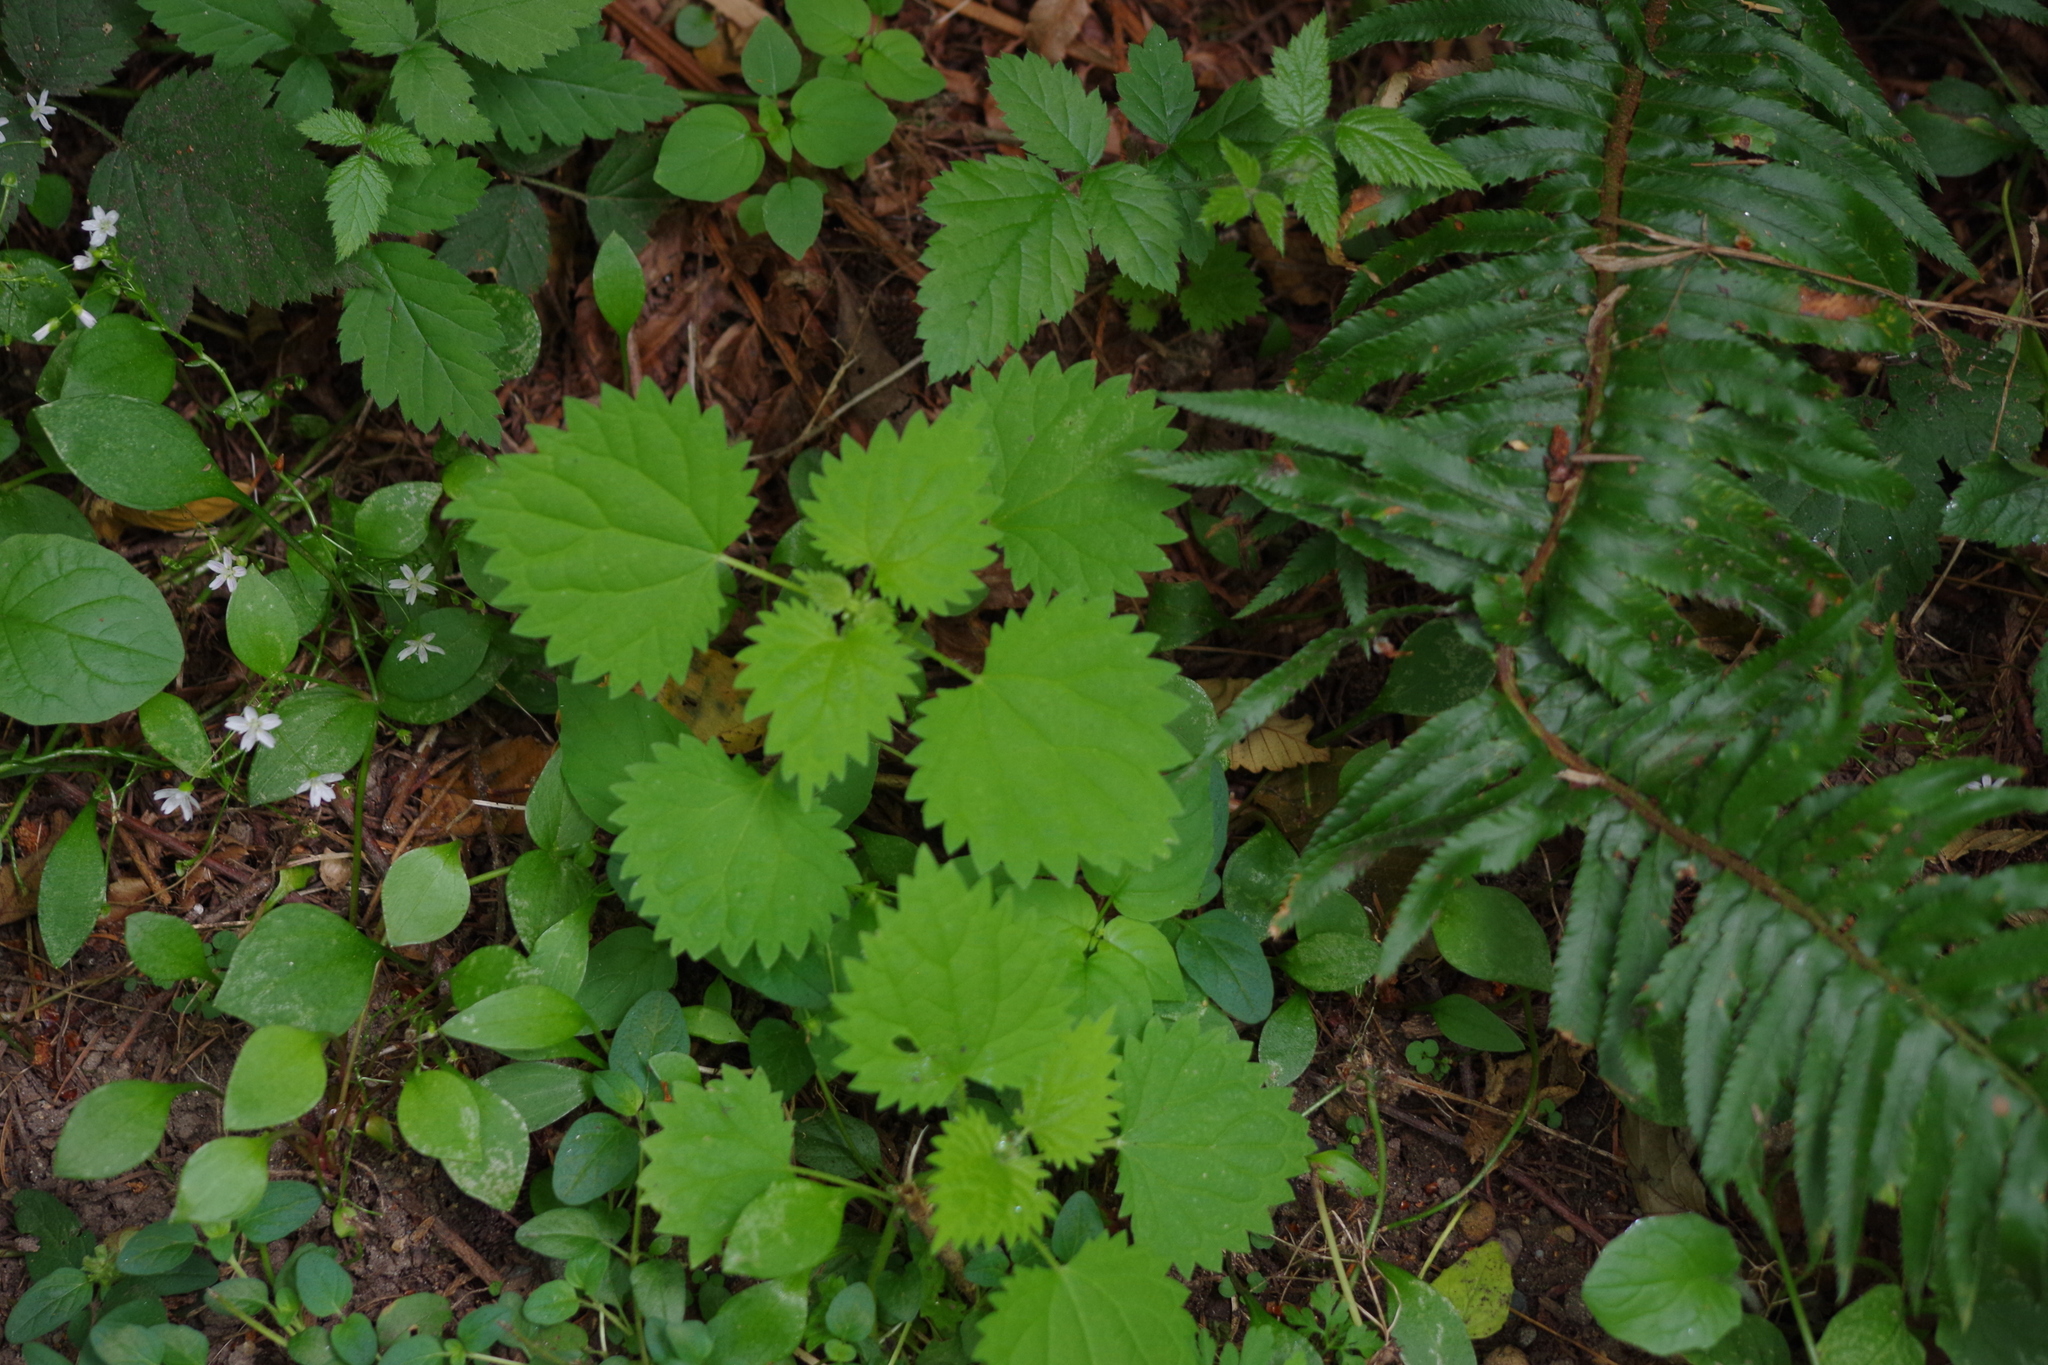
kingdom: Plantae
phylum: Tracheophyta
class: Magnoliopsida
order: Rosales
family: Urticaceae
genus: Urtica
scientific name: Urtica gracilis
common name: Slender stinging nettle
